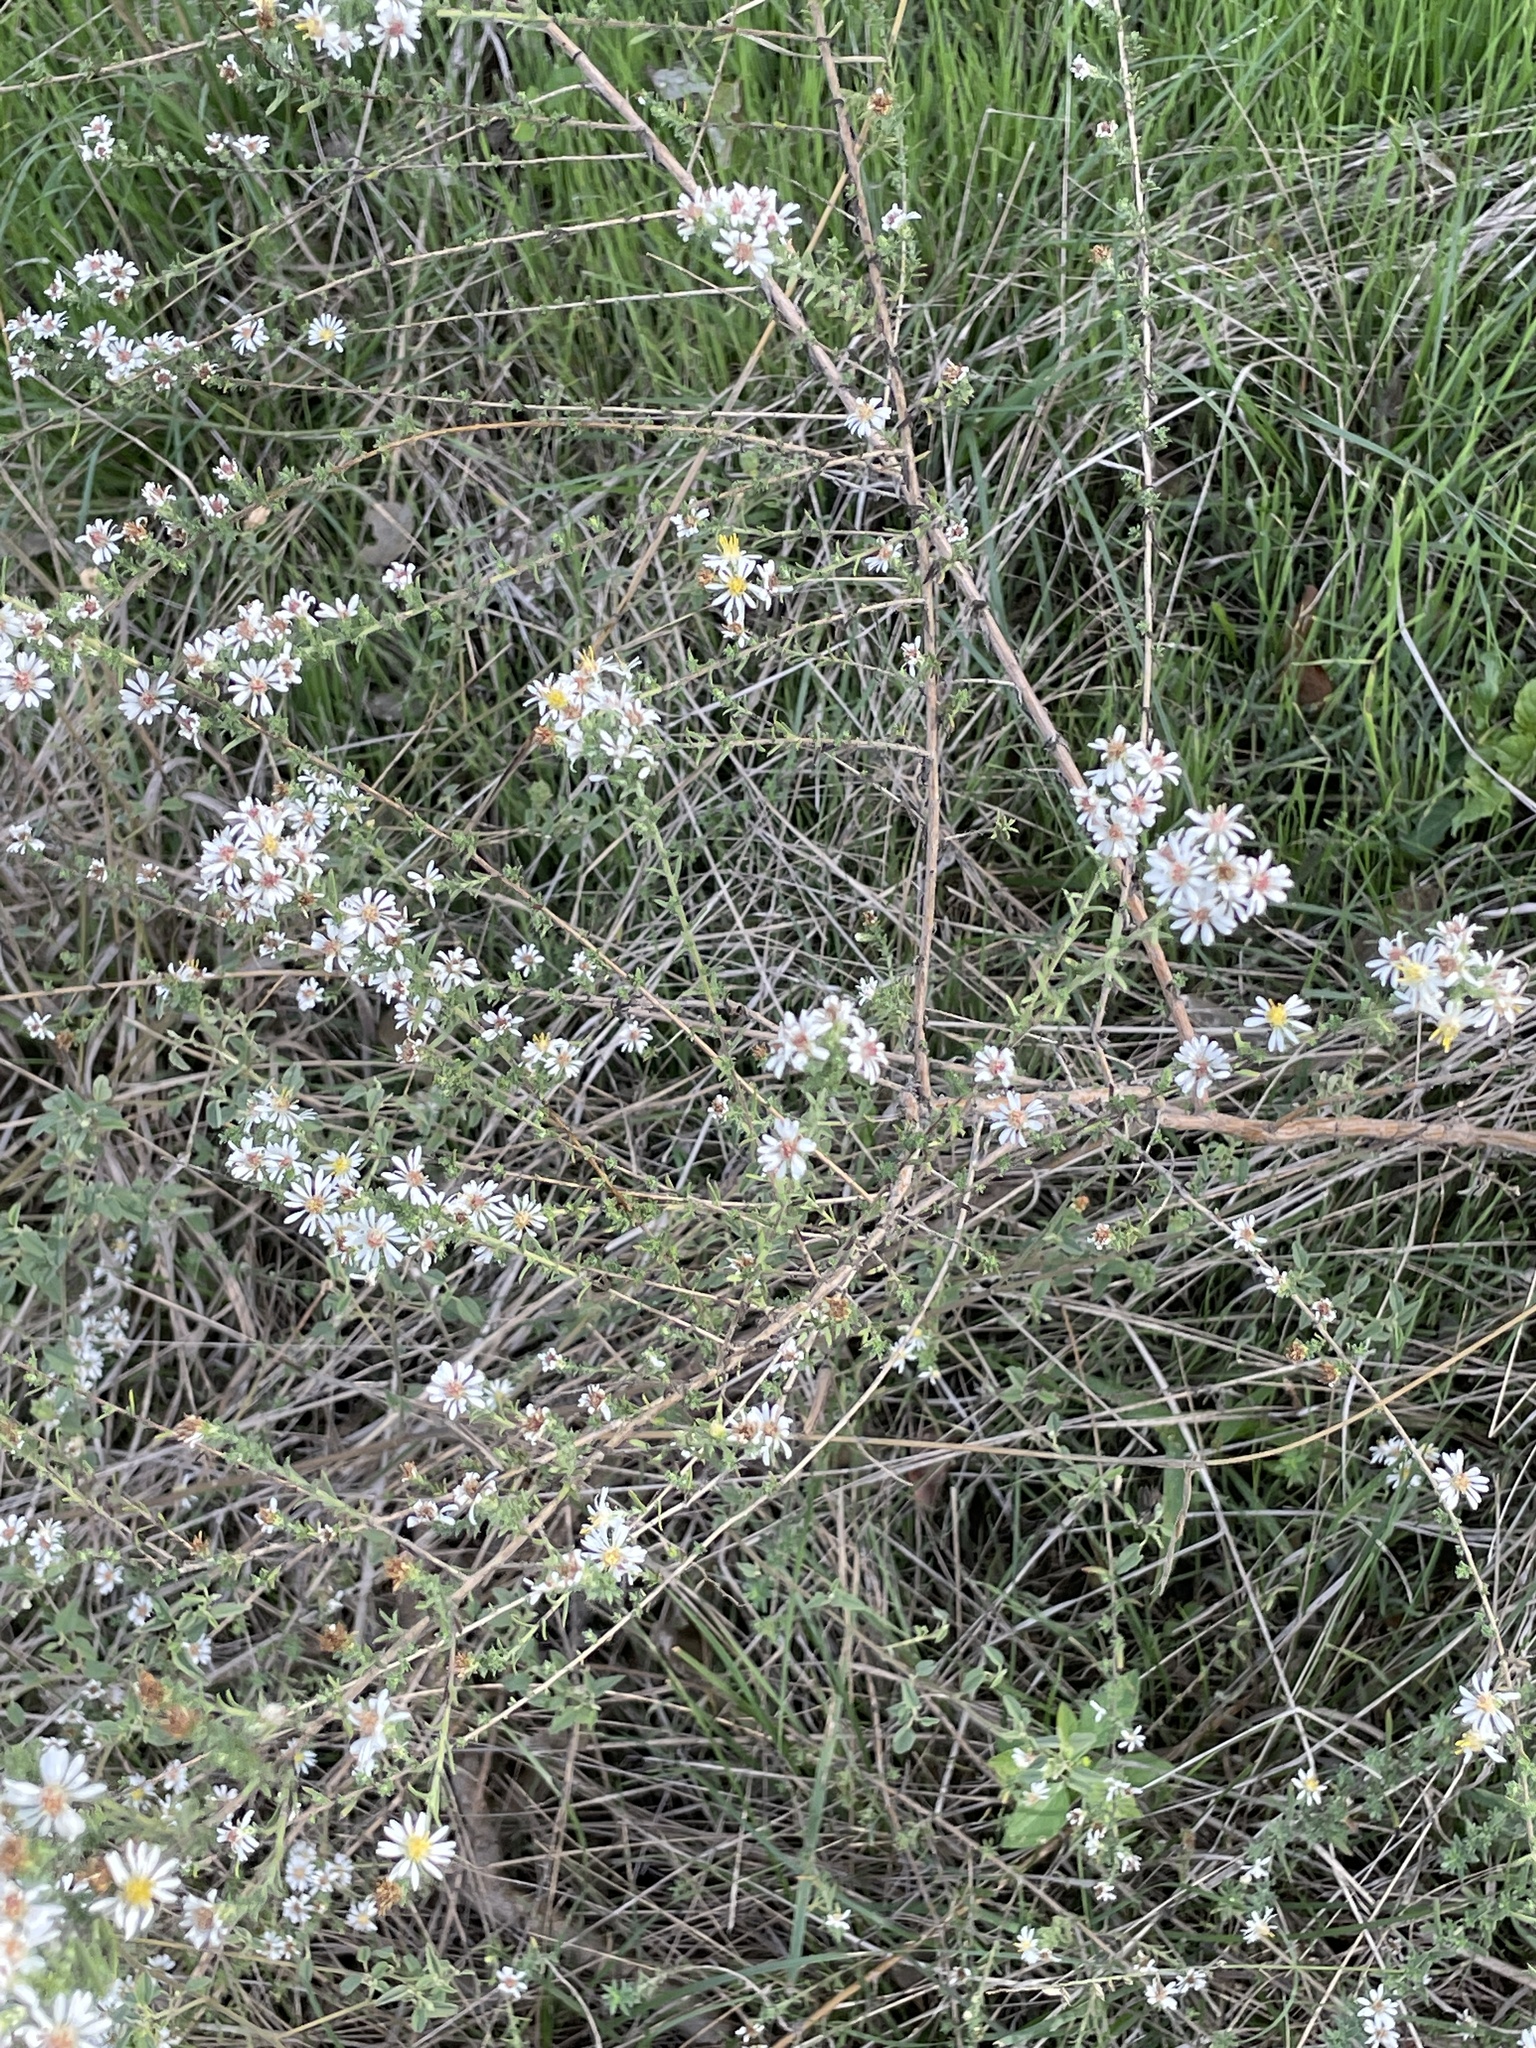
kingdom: Plantae
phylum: Tracheophyta
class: Magnoliopsida
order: Asterales
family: Asteraceae
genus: Symphyotrichum
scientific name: Symphyotrichum ericoides
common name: Heath aster
